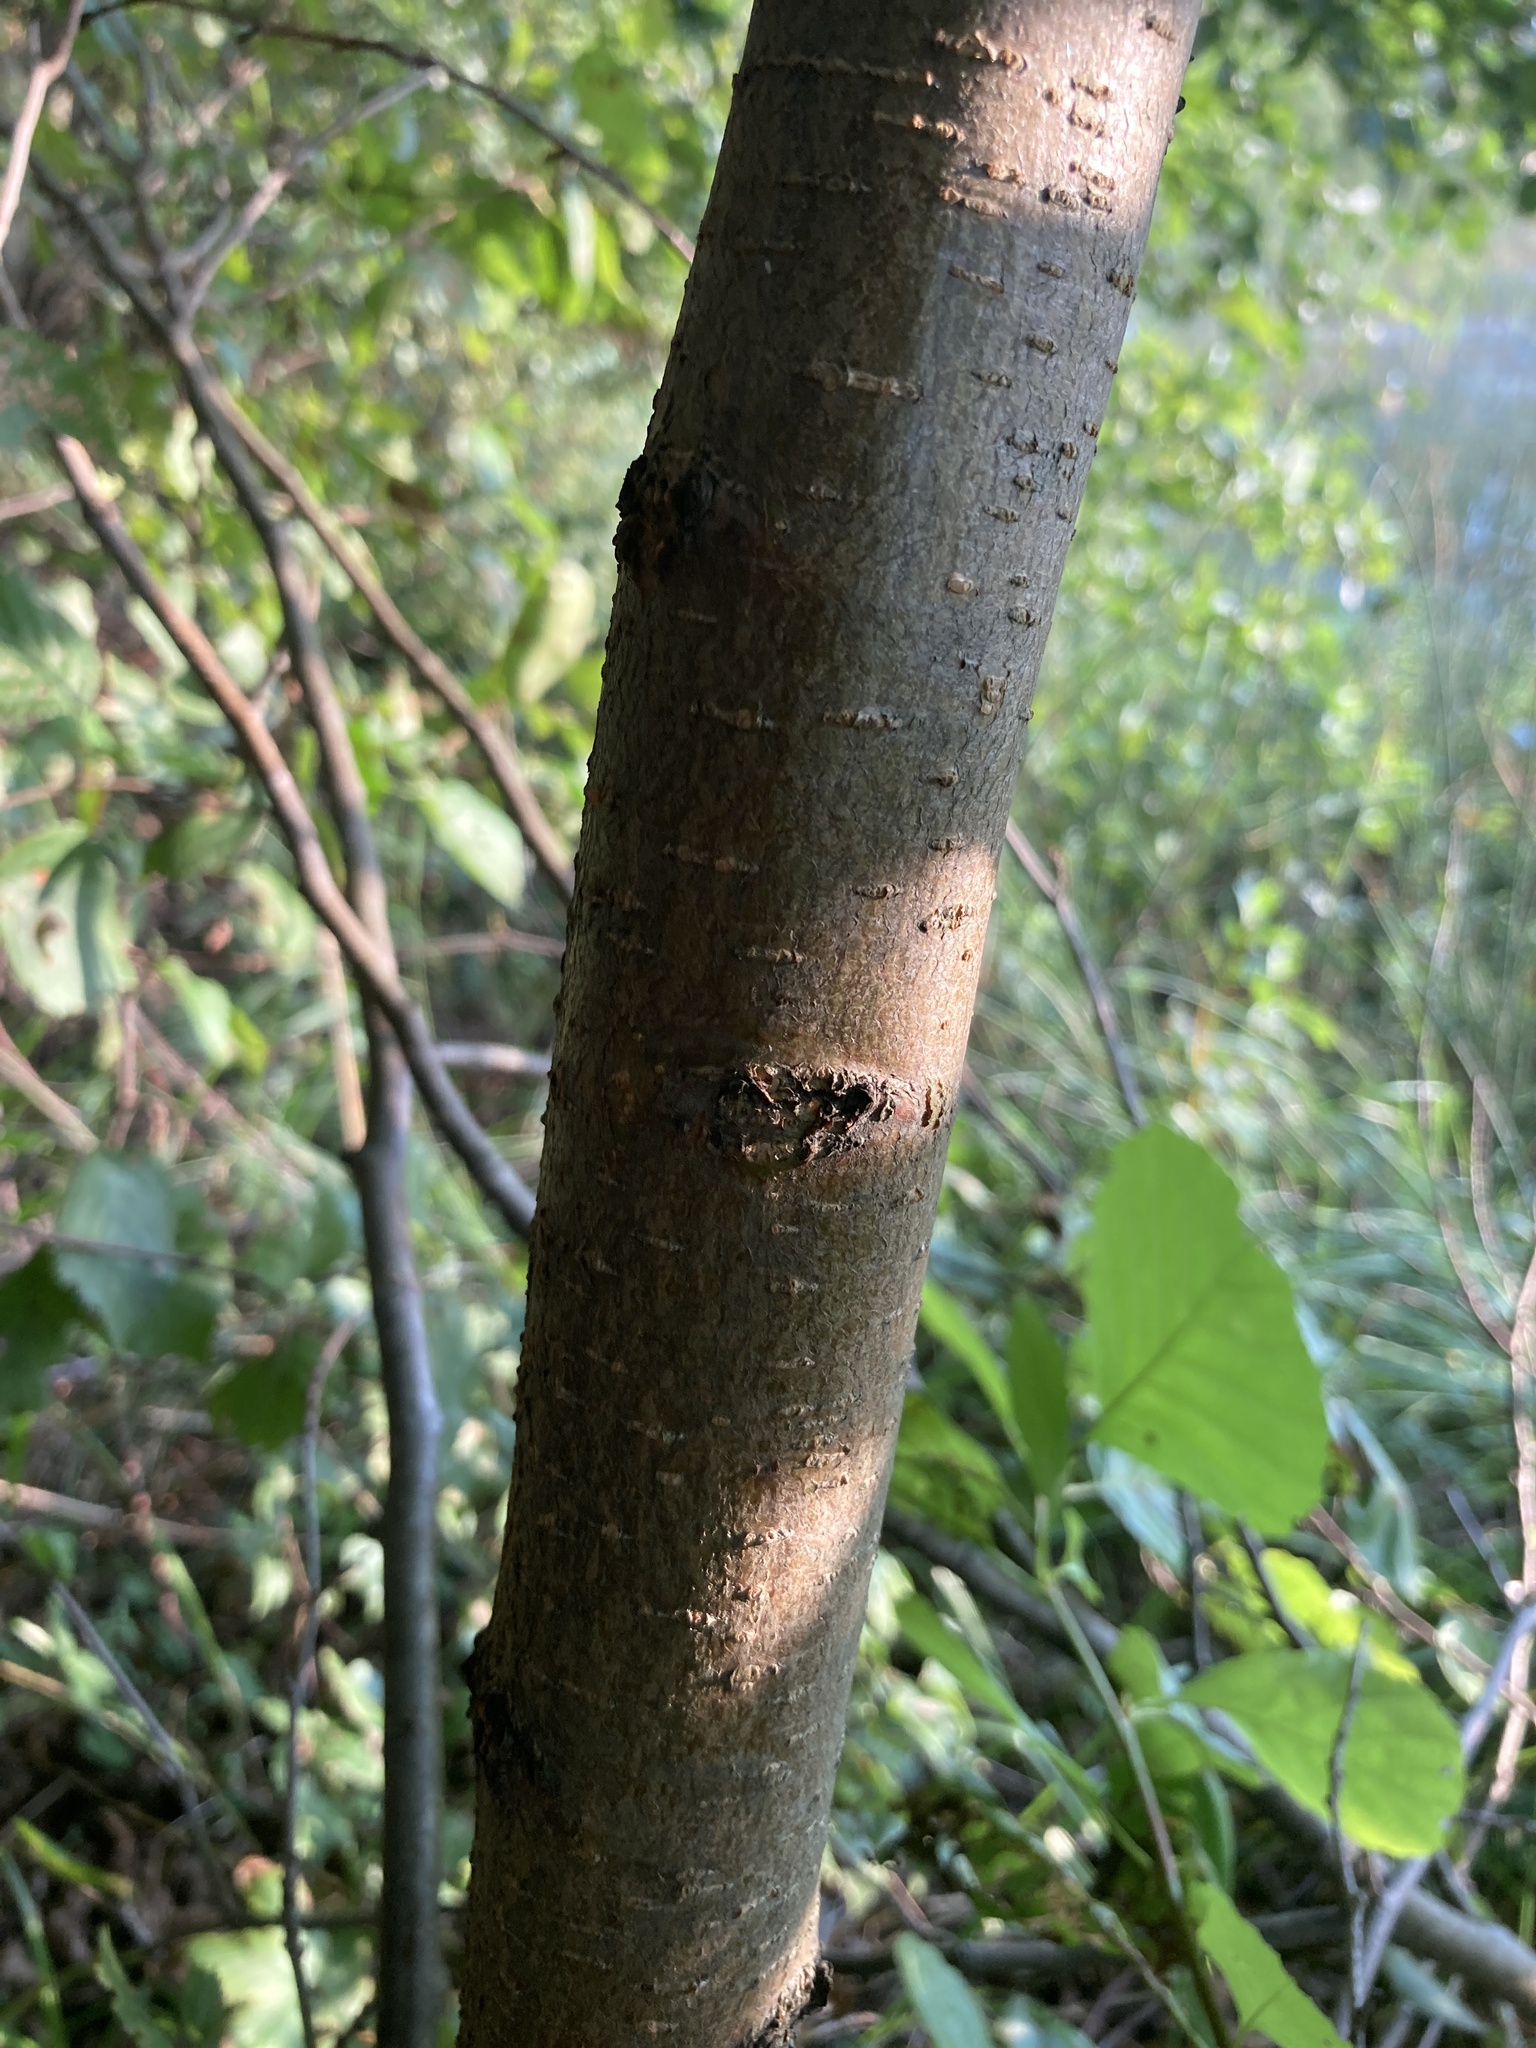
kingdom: Plantae
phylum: Tracheophyta
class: Magnoliopsida
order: Fagales
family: Betulaceae
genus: Alnus
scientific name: Alnus glutinosa
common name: Black alder
